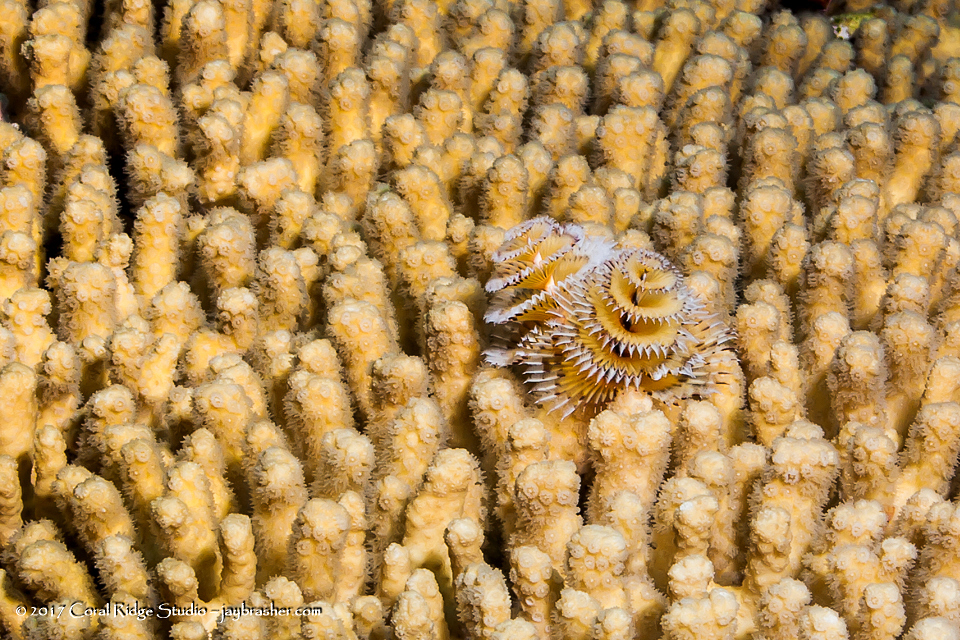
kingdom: Animalia
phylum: Cnidaria
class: Anthozoa
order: Scleractinia
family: Pocilloporidae
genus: Madracis
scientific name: Madracis auretenra
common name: Yellow pencil coral
